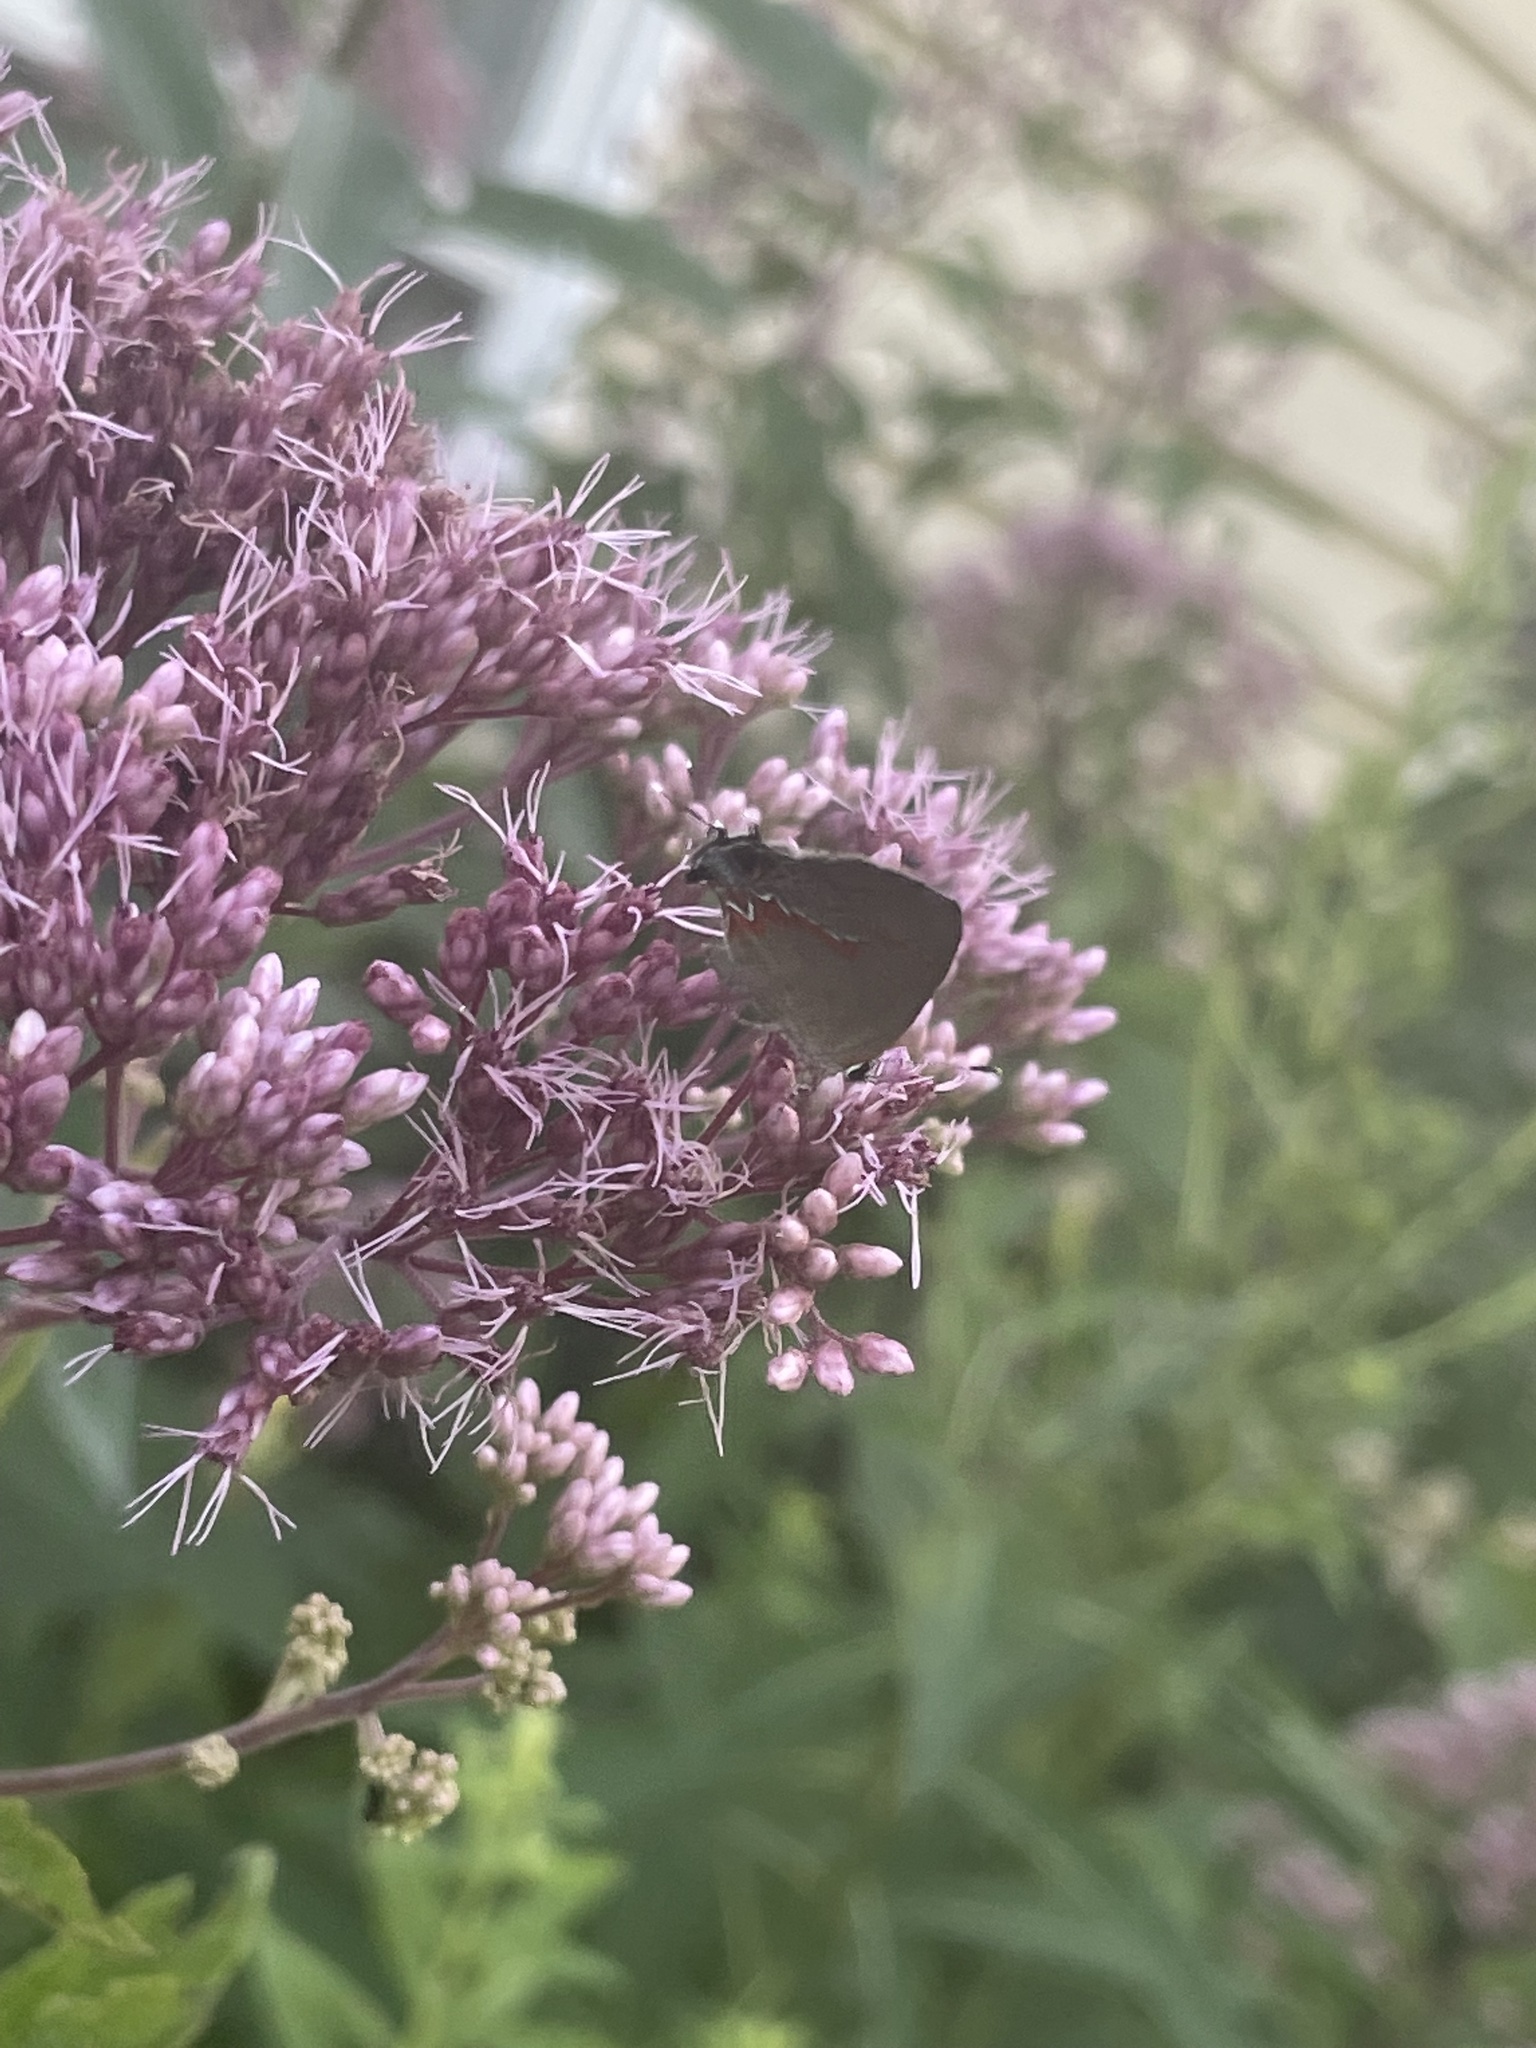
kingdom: Animalia
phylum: Arthropoda
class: Insecta
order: Lepidoptera
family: Lycaenidae
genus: Calycopis
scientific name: Calycopis cecrops
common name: Red-banded hairstreak
